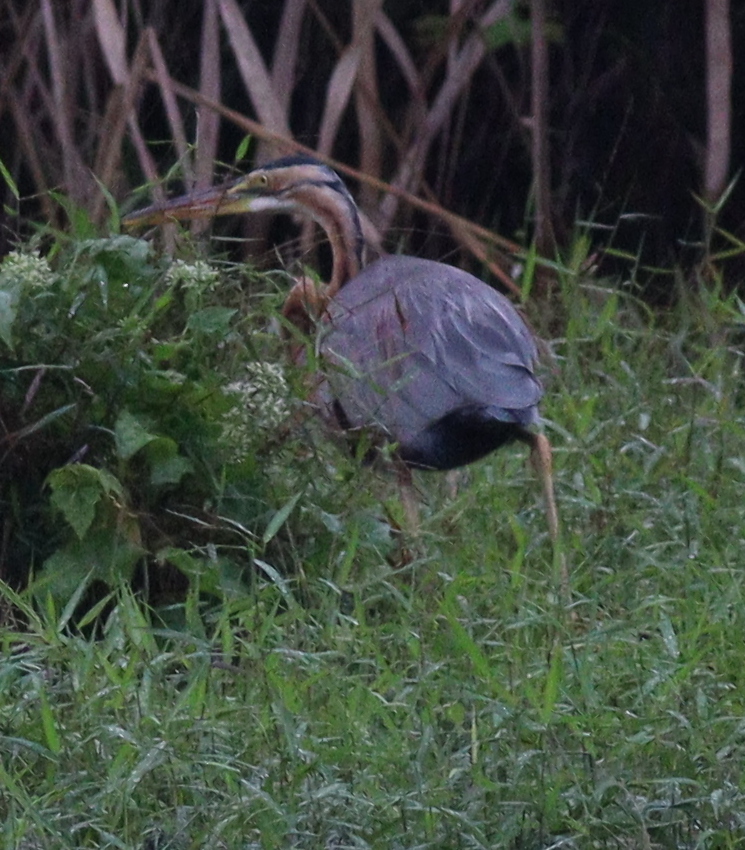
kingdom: Animalia
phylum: Chordata
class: Aves
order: Pelecaniformes
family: Ardeidae
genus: Ardea
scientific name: Ardea purpurea
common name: Purple heron
